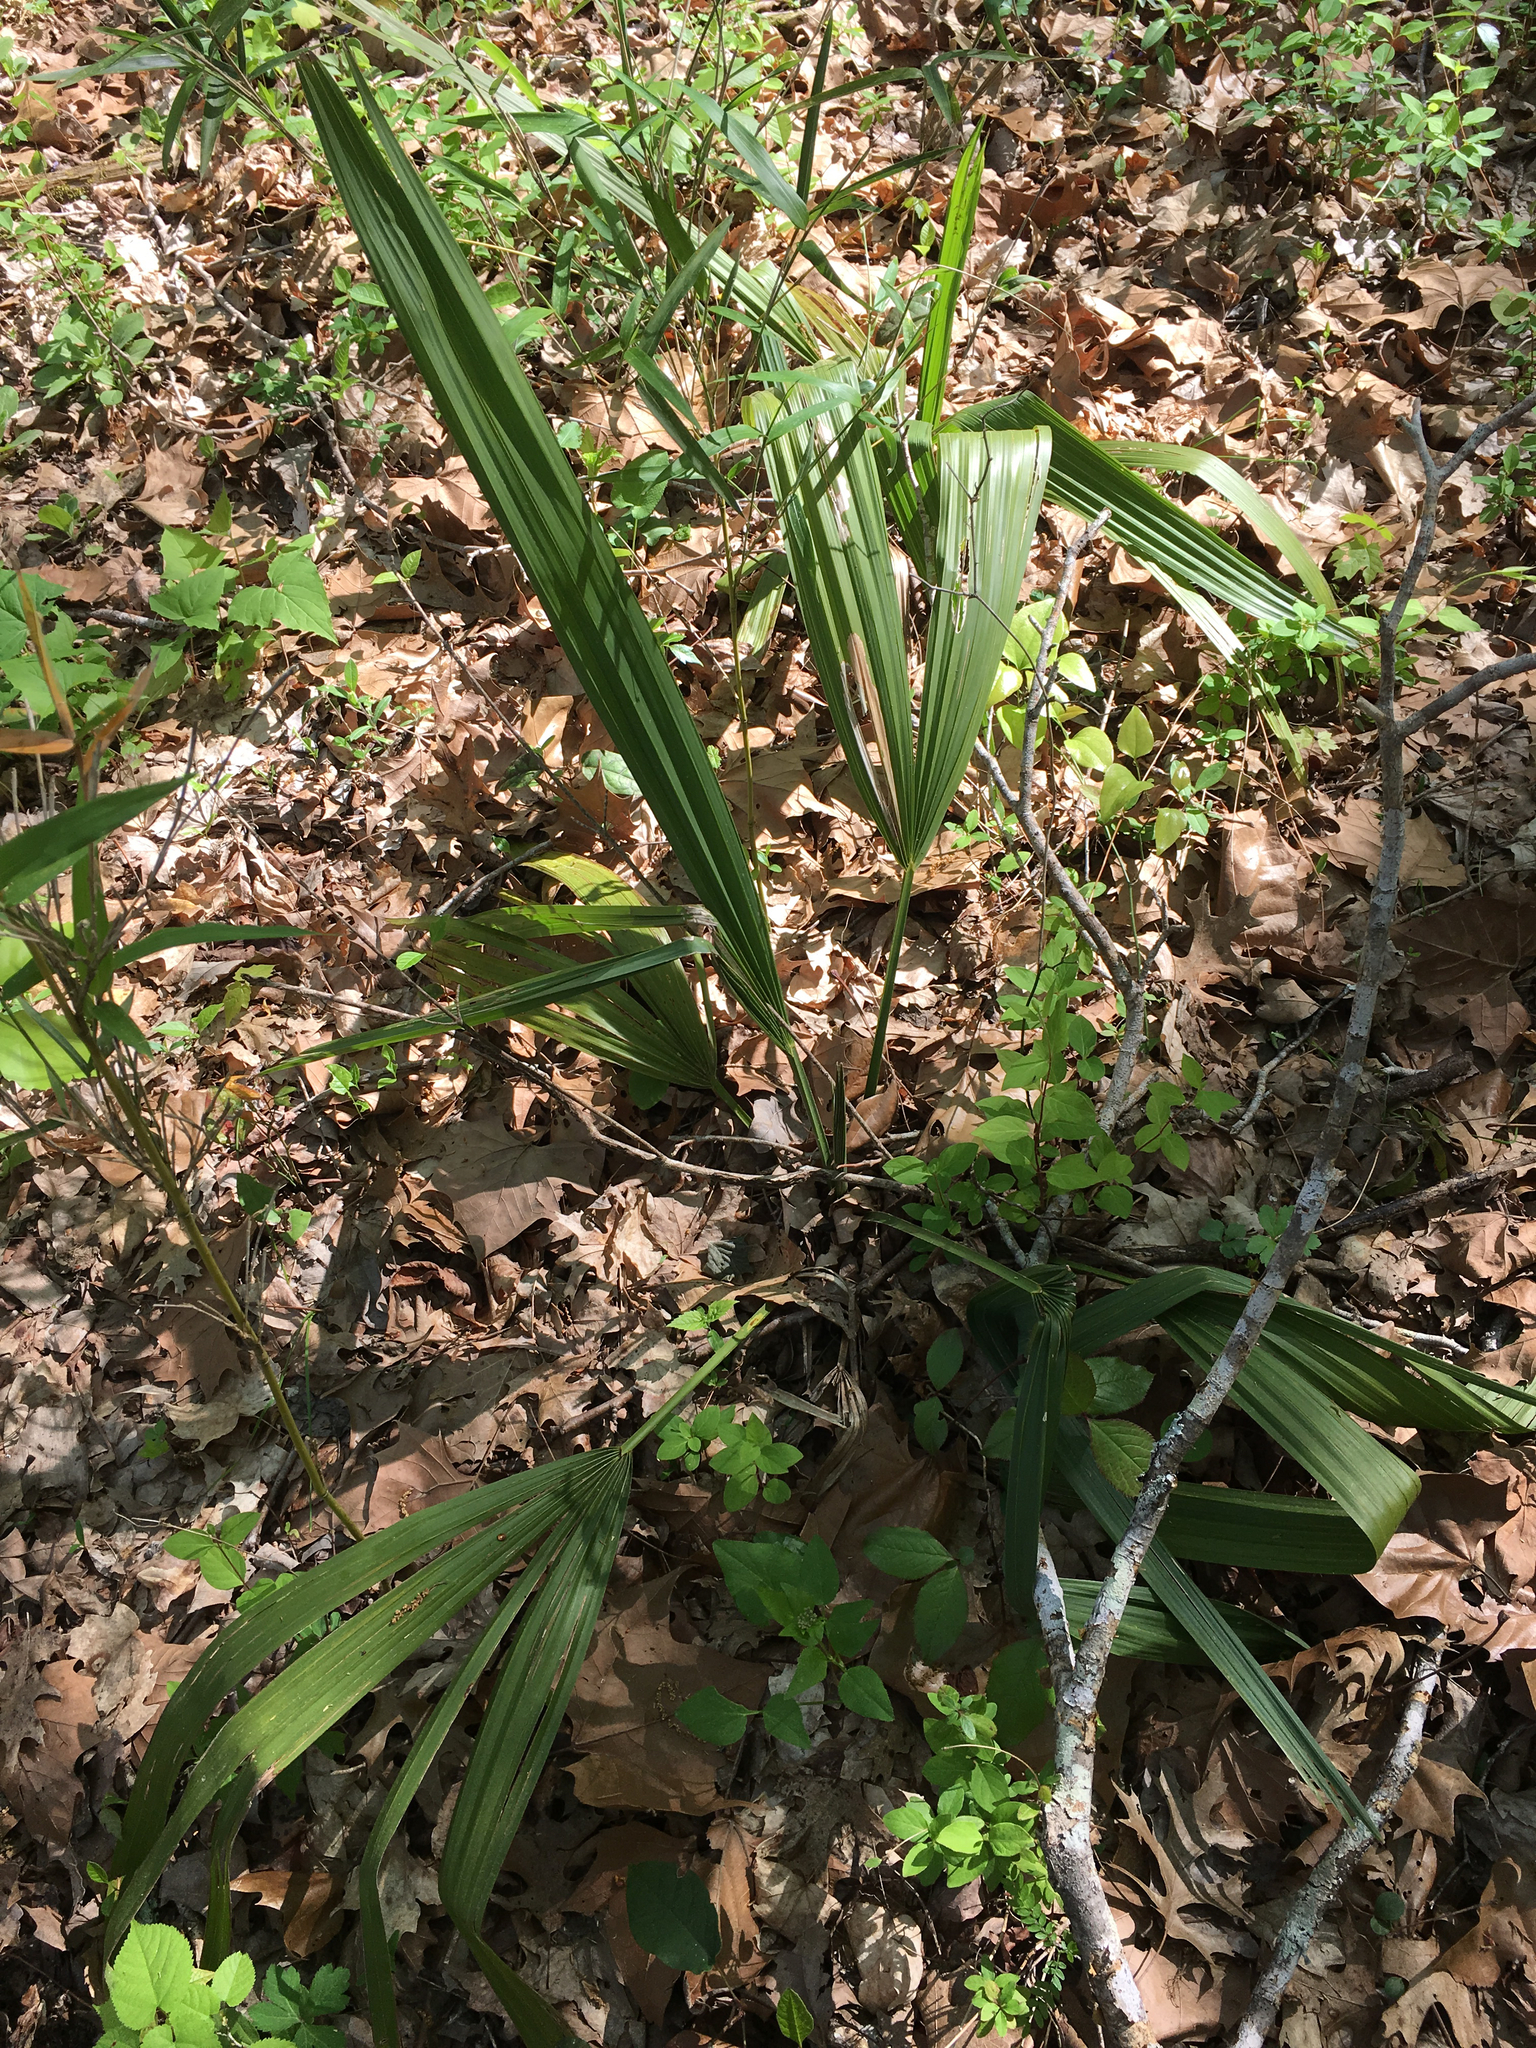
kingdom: Plantae
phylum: Tracheophyta
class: Liliopsida
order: Arecales
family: Arecaceae
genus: Sabal
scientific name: Sabal minor
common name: Dwarf palmetto
